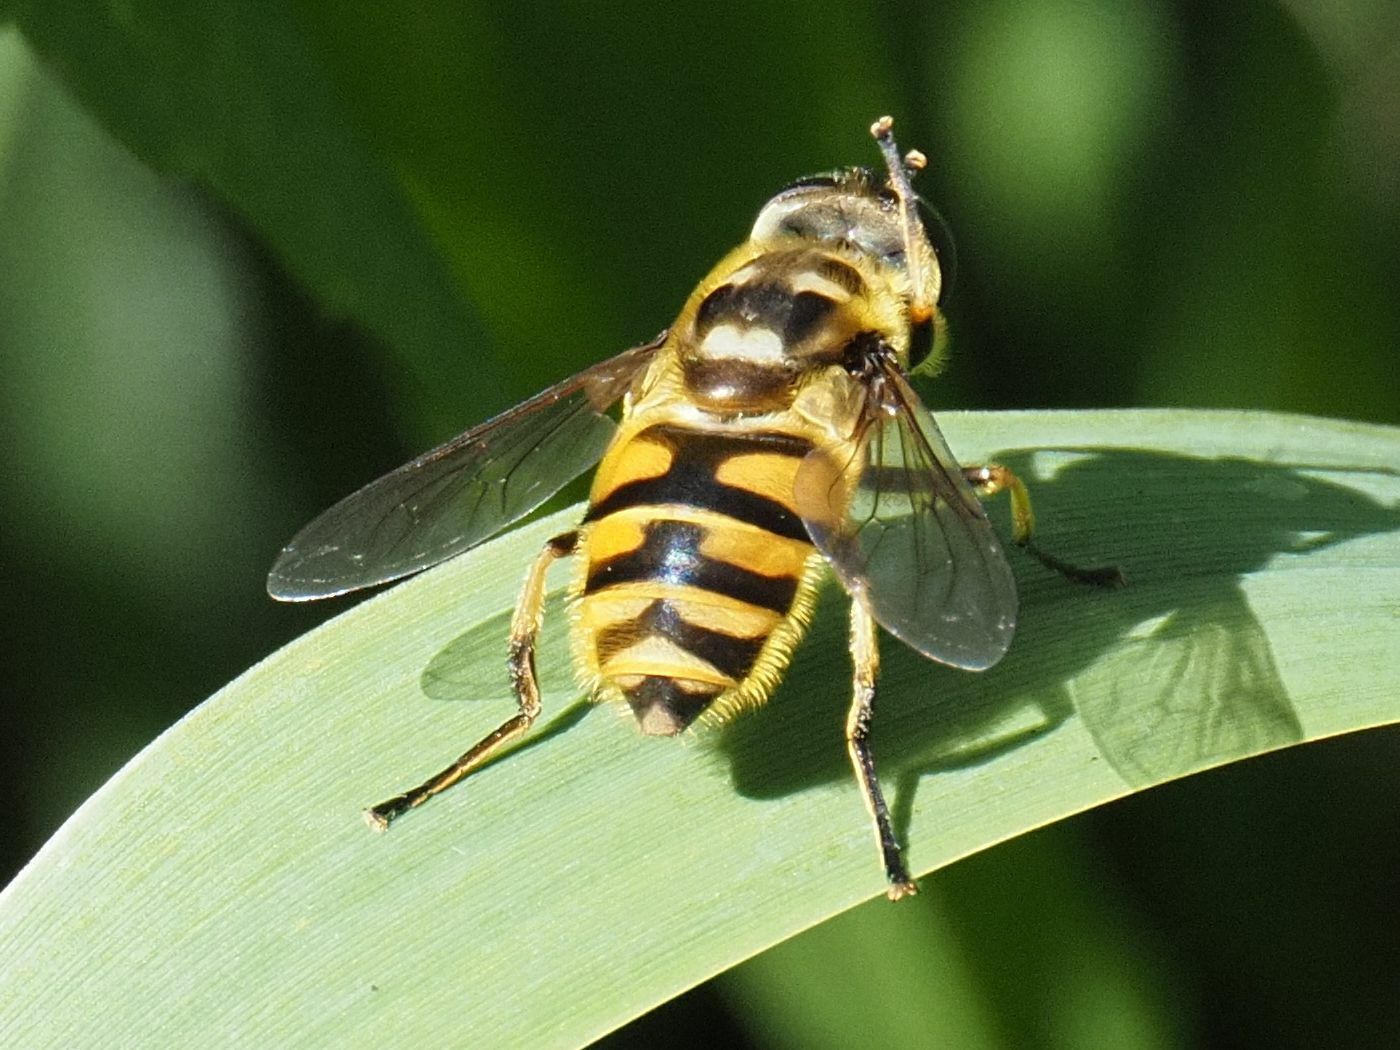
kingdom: Animalia
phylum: Arthropoda
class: Insecta
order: Diptera
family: Syrphidae
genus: Myathropa
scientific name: Myathropa florea
